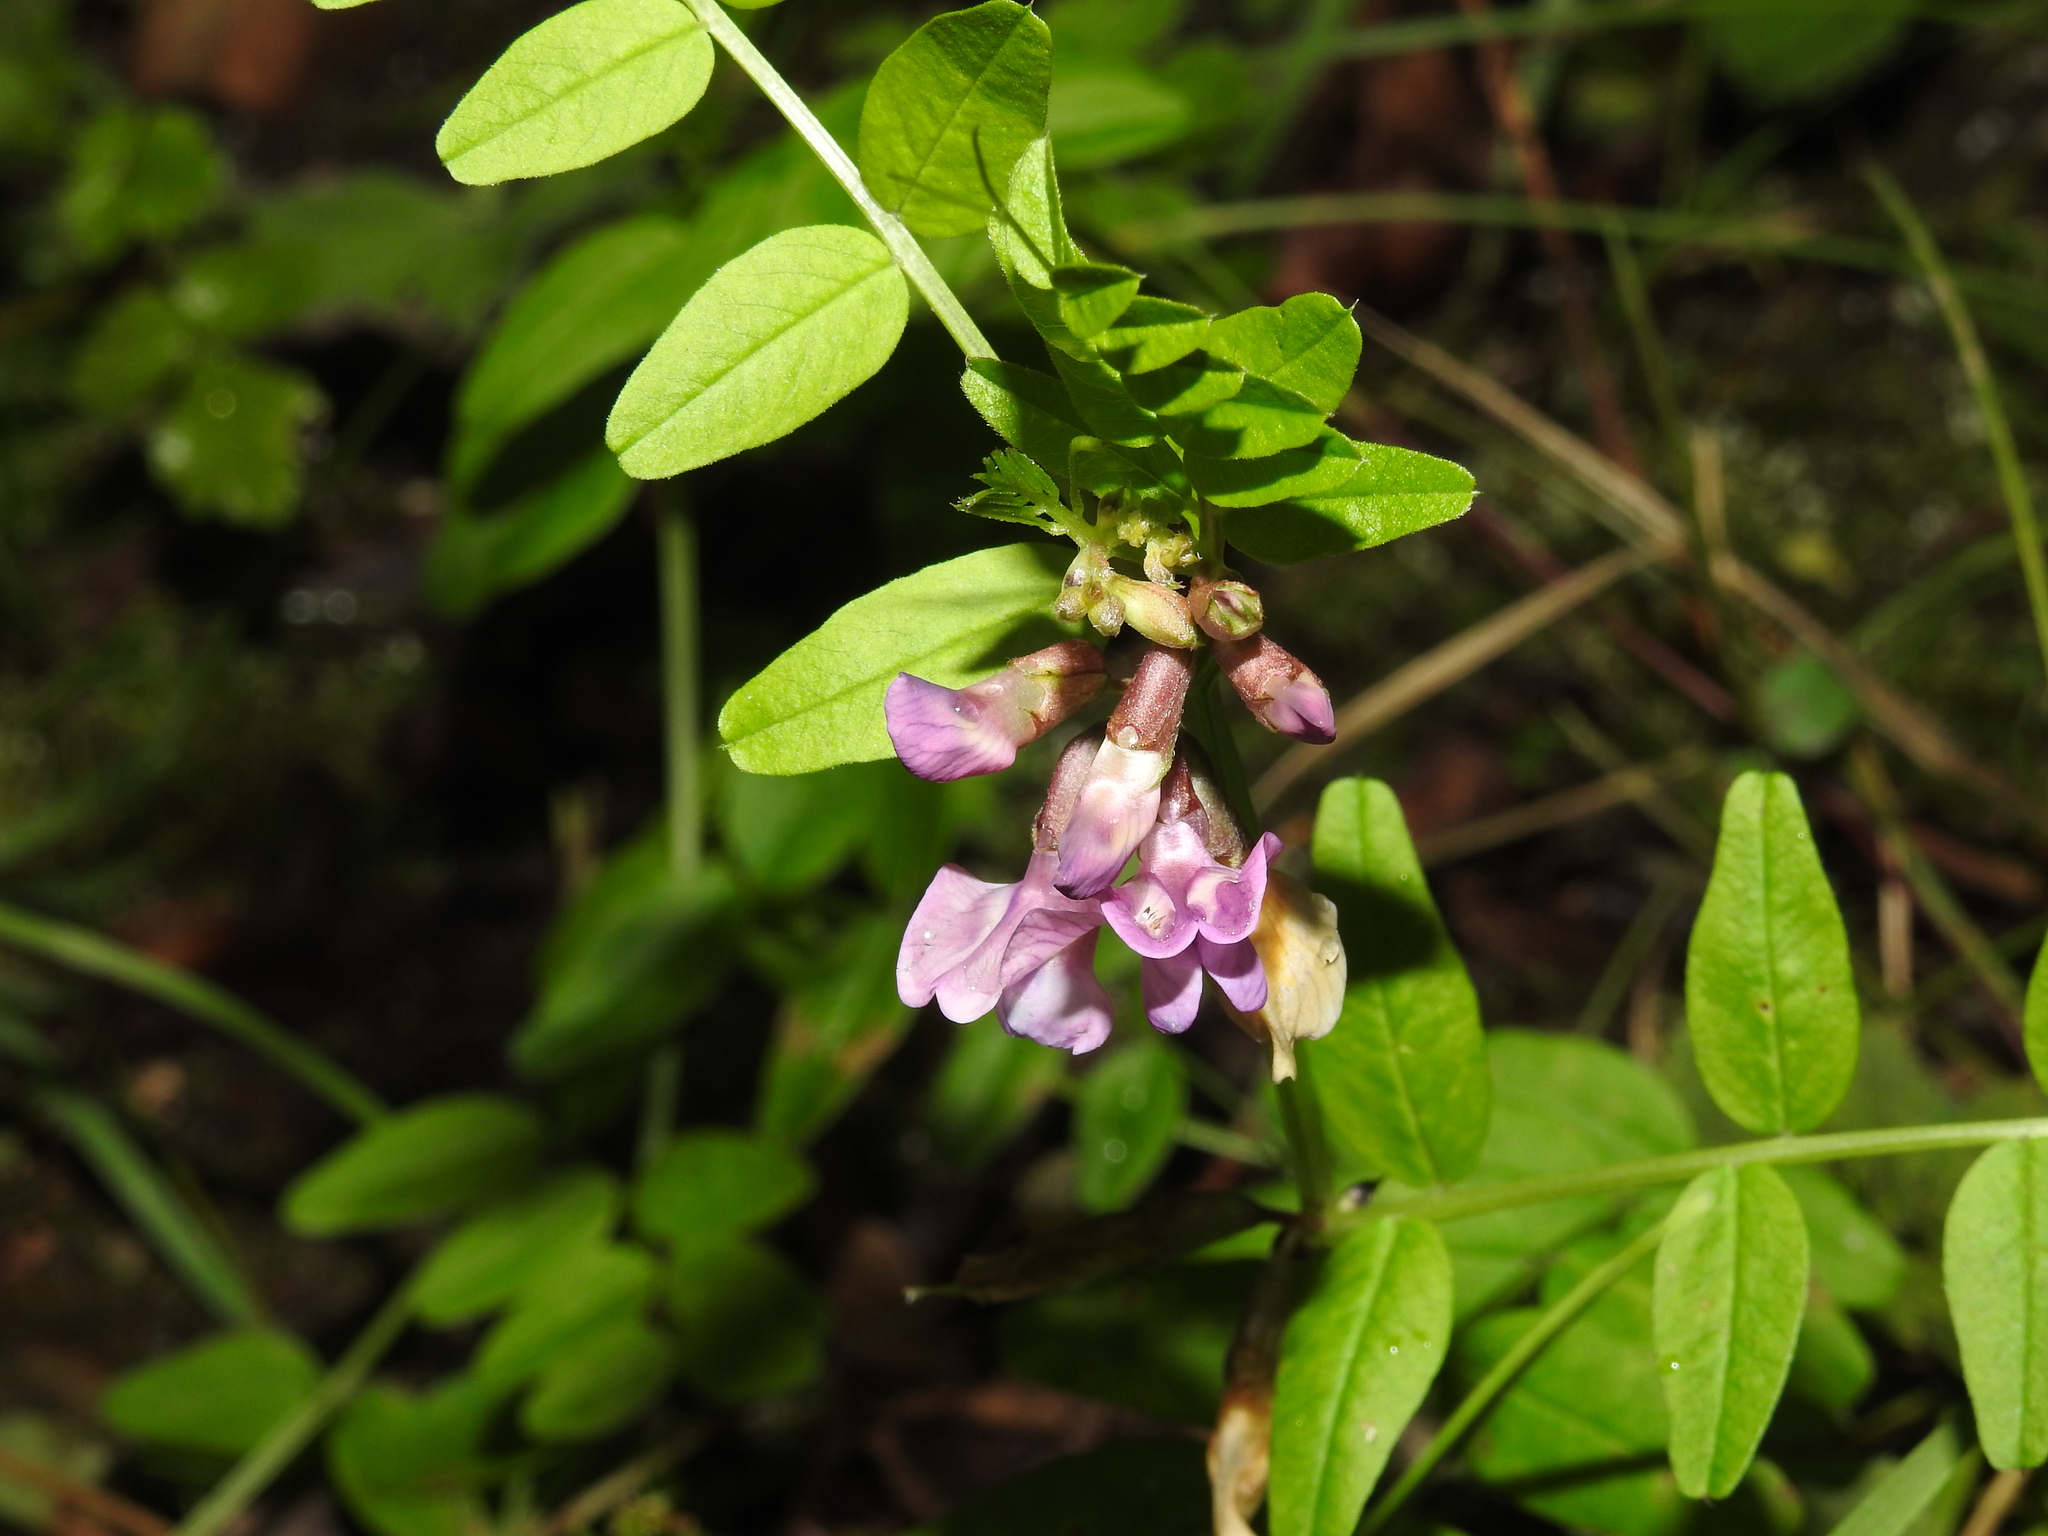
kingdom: Plantae
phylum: Tracheophyta
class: Magnoliopsida
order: Fabales
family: Fabaceae
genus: Vicia
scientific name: Vicia sepium
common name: Bush vetch
